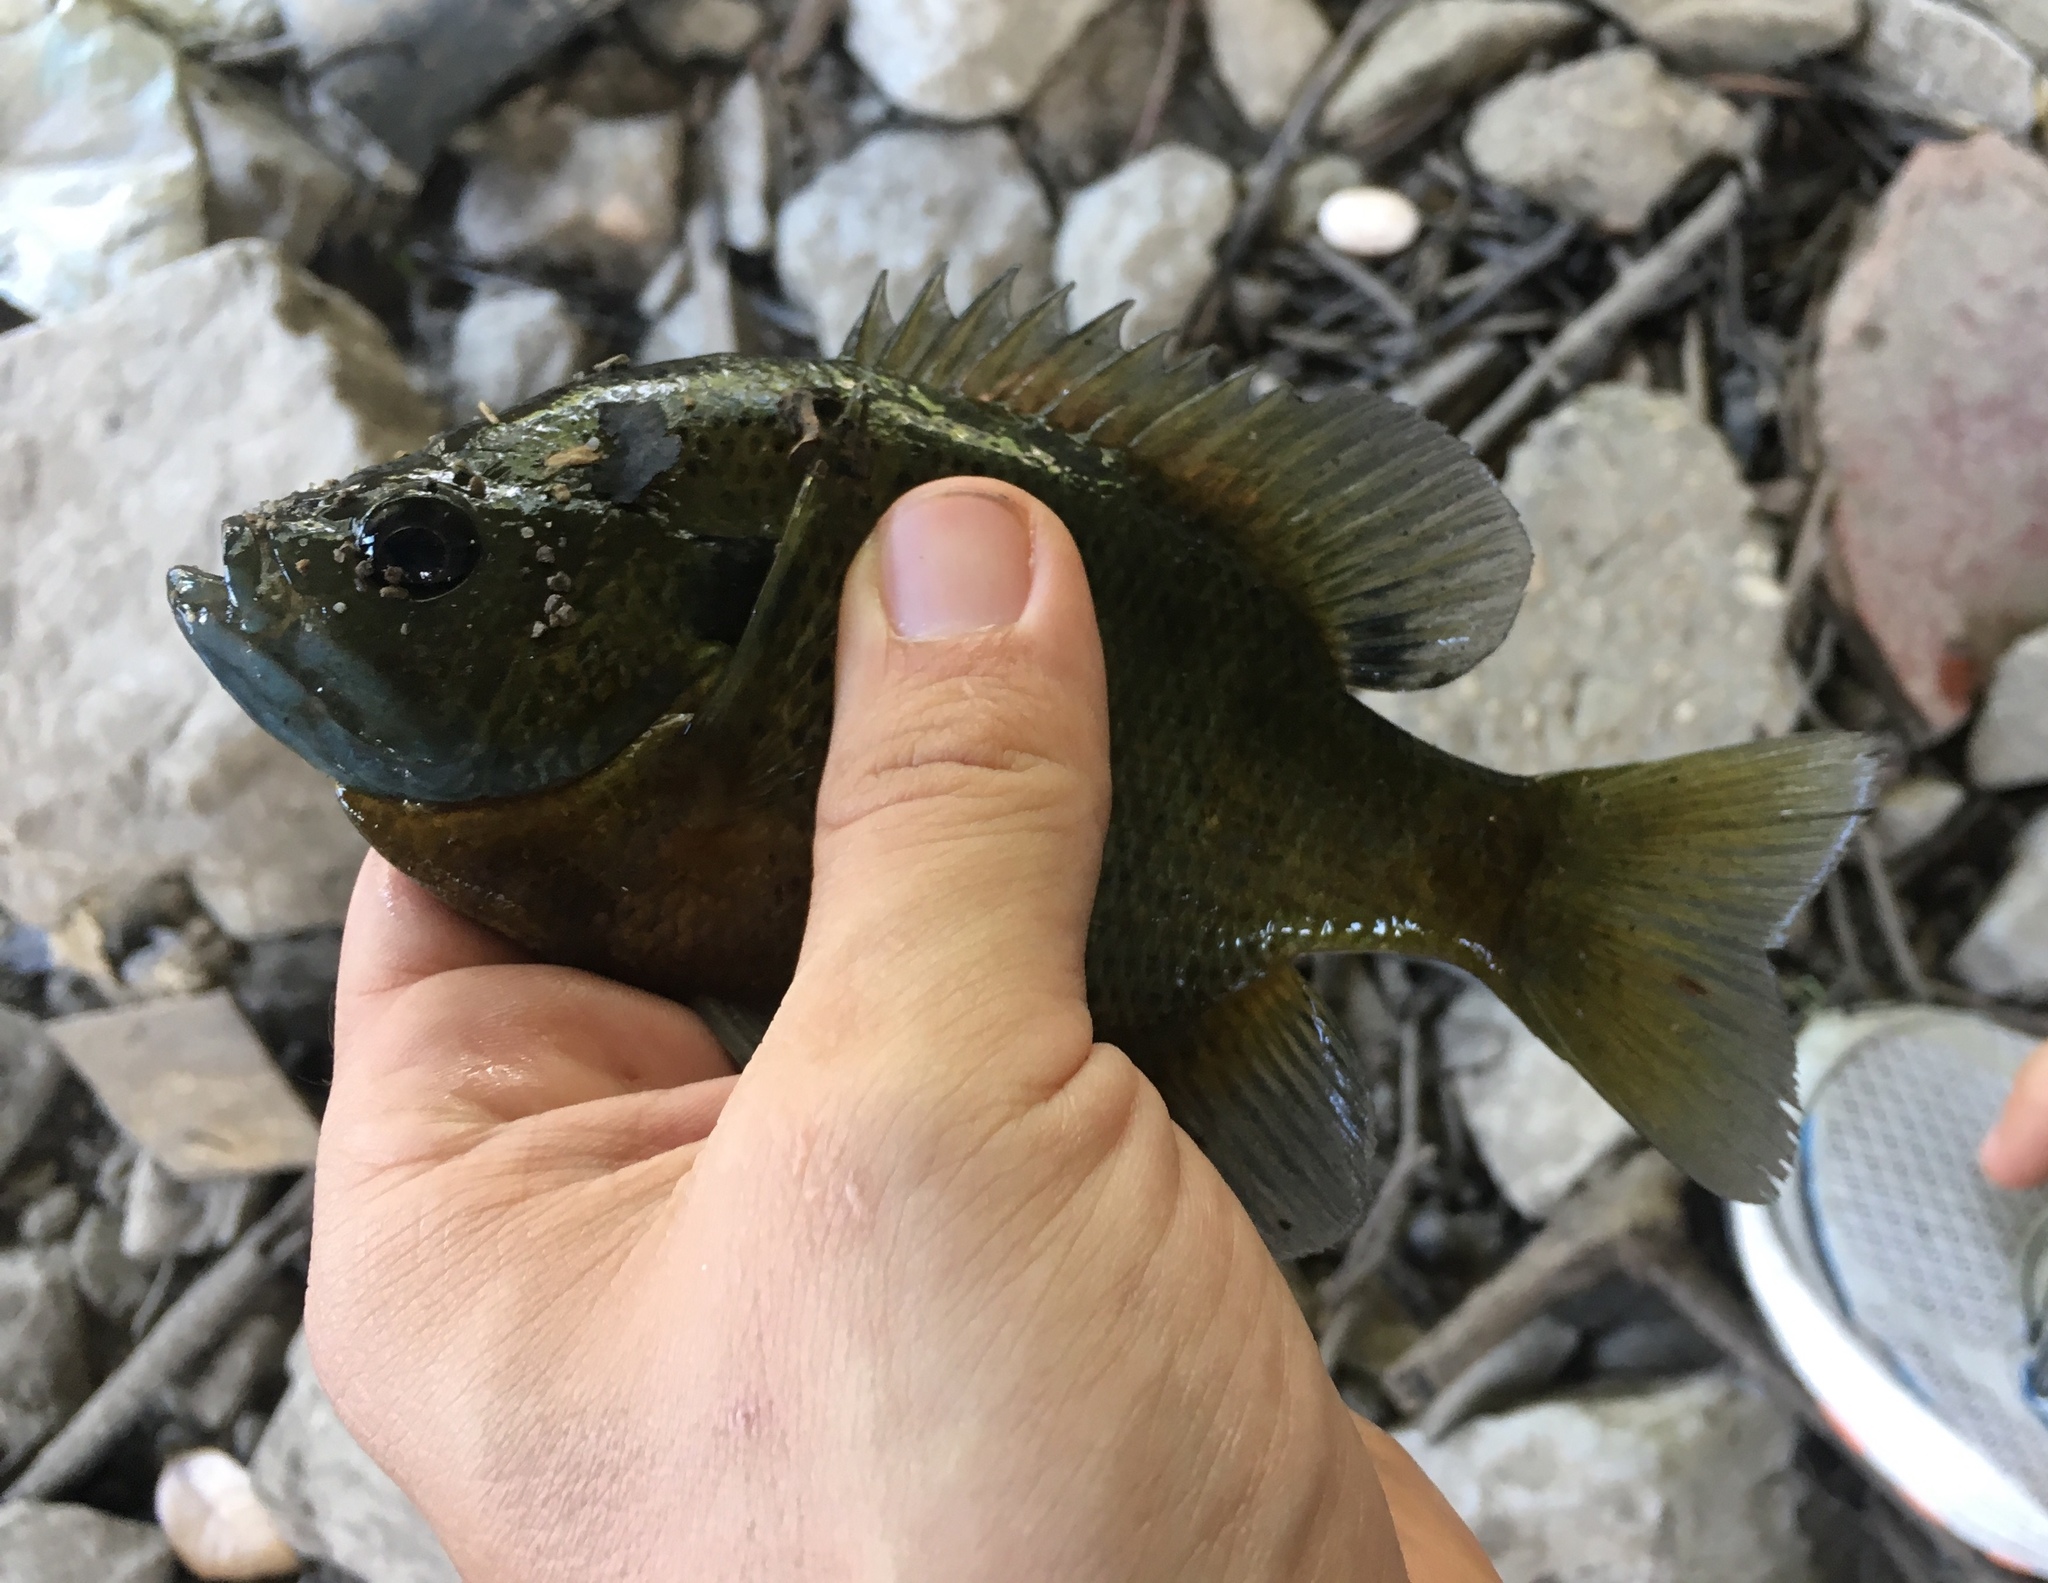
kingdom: Animalia
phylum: Chordata
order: Perciformes
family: Centrarchidae
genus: Lepomis
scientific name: Lepomis macrochirus
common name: Bluegill
